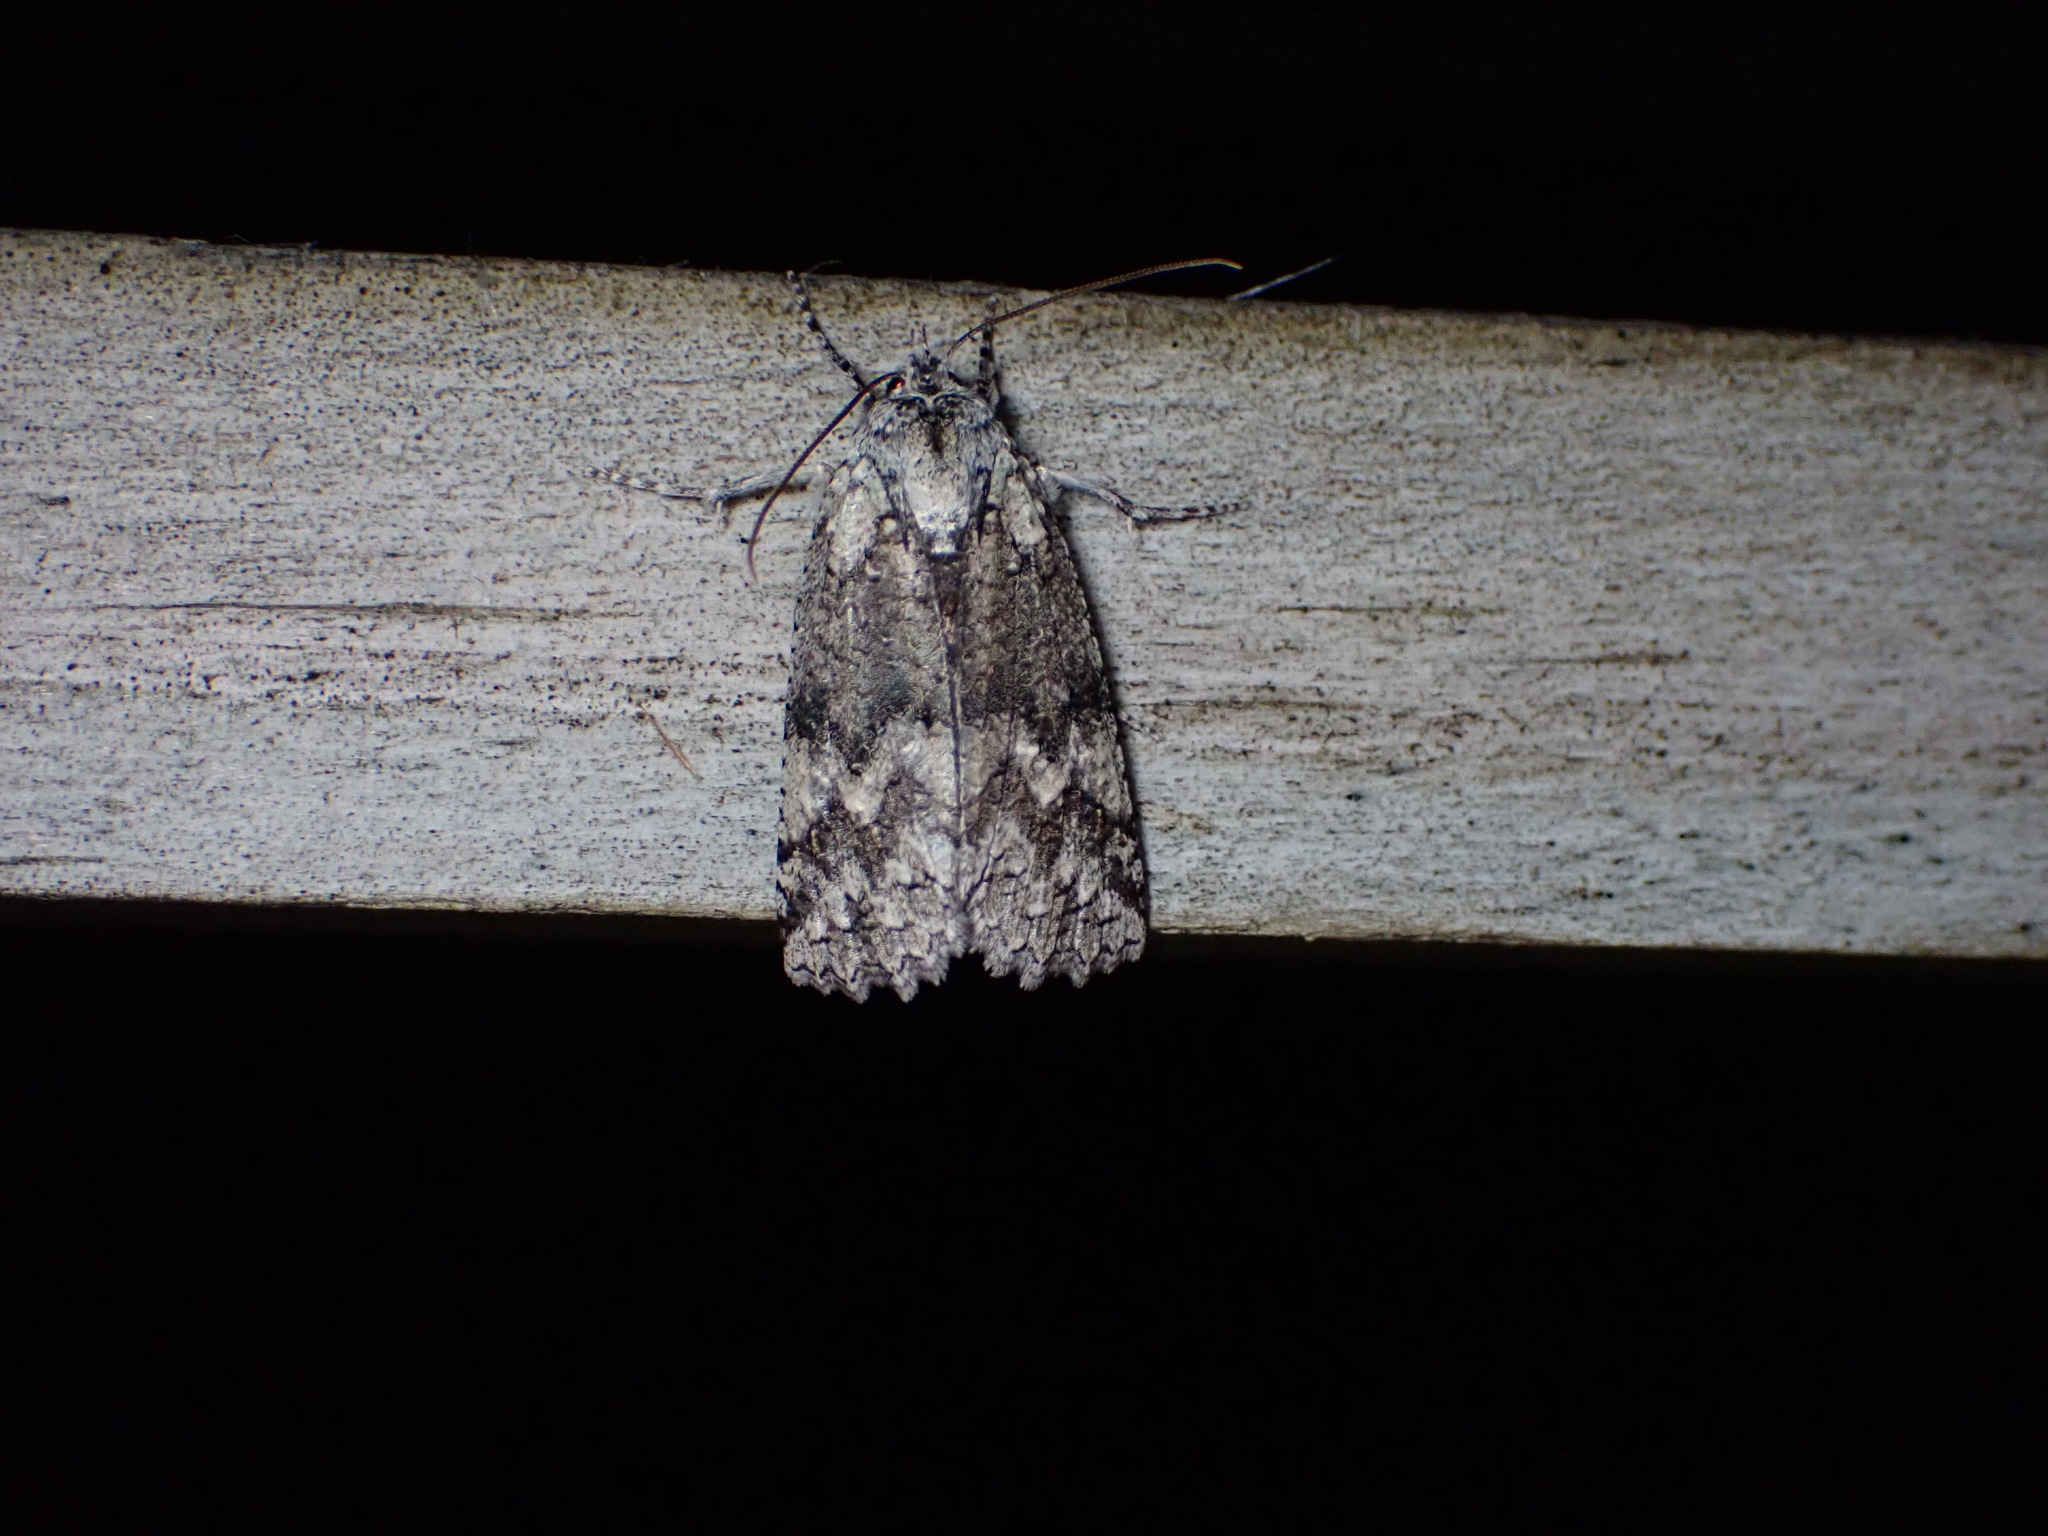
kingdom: Animalia
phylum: Arthropoda
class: Insecta
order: Lepidoptera
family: Geometridae
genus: Declana
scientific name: Declana floccosa
